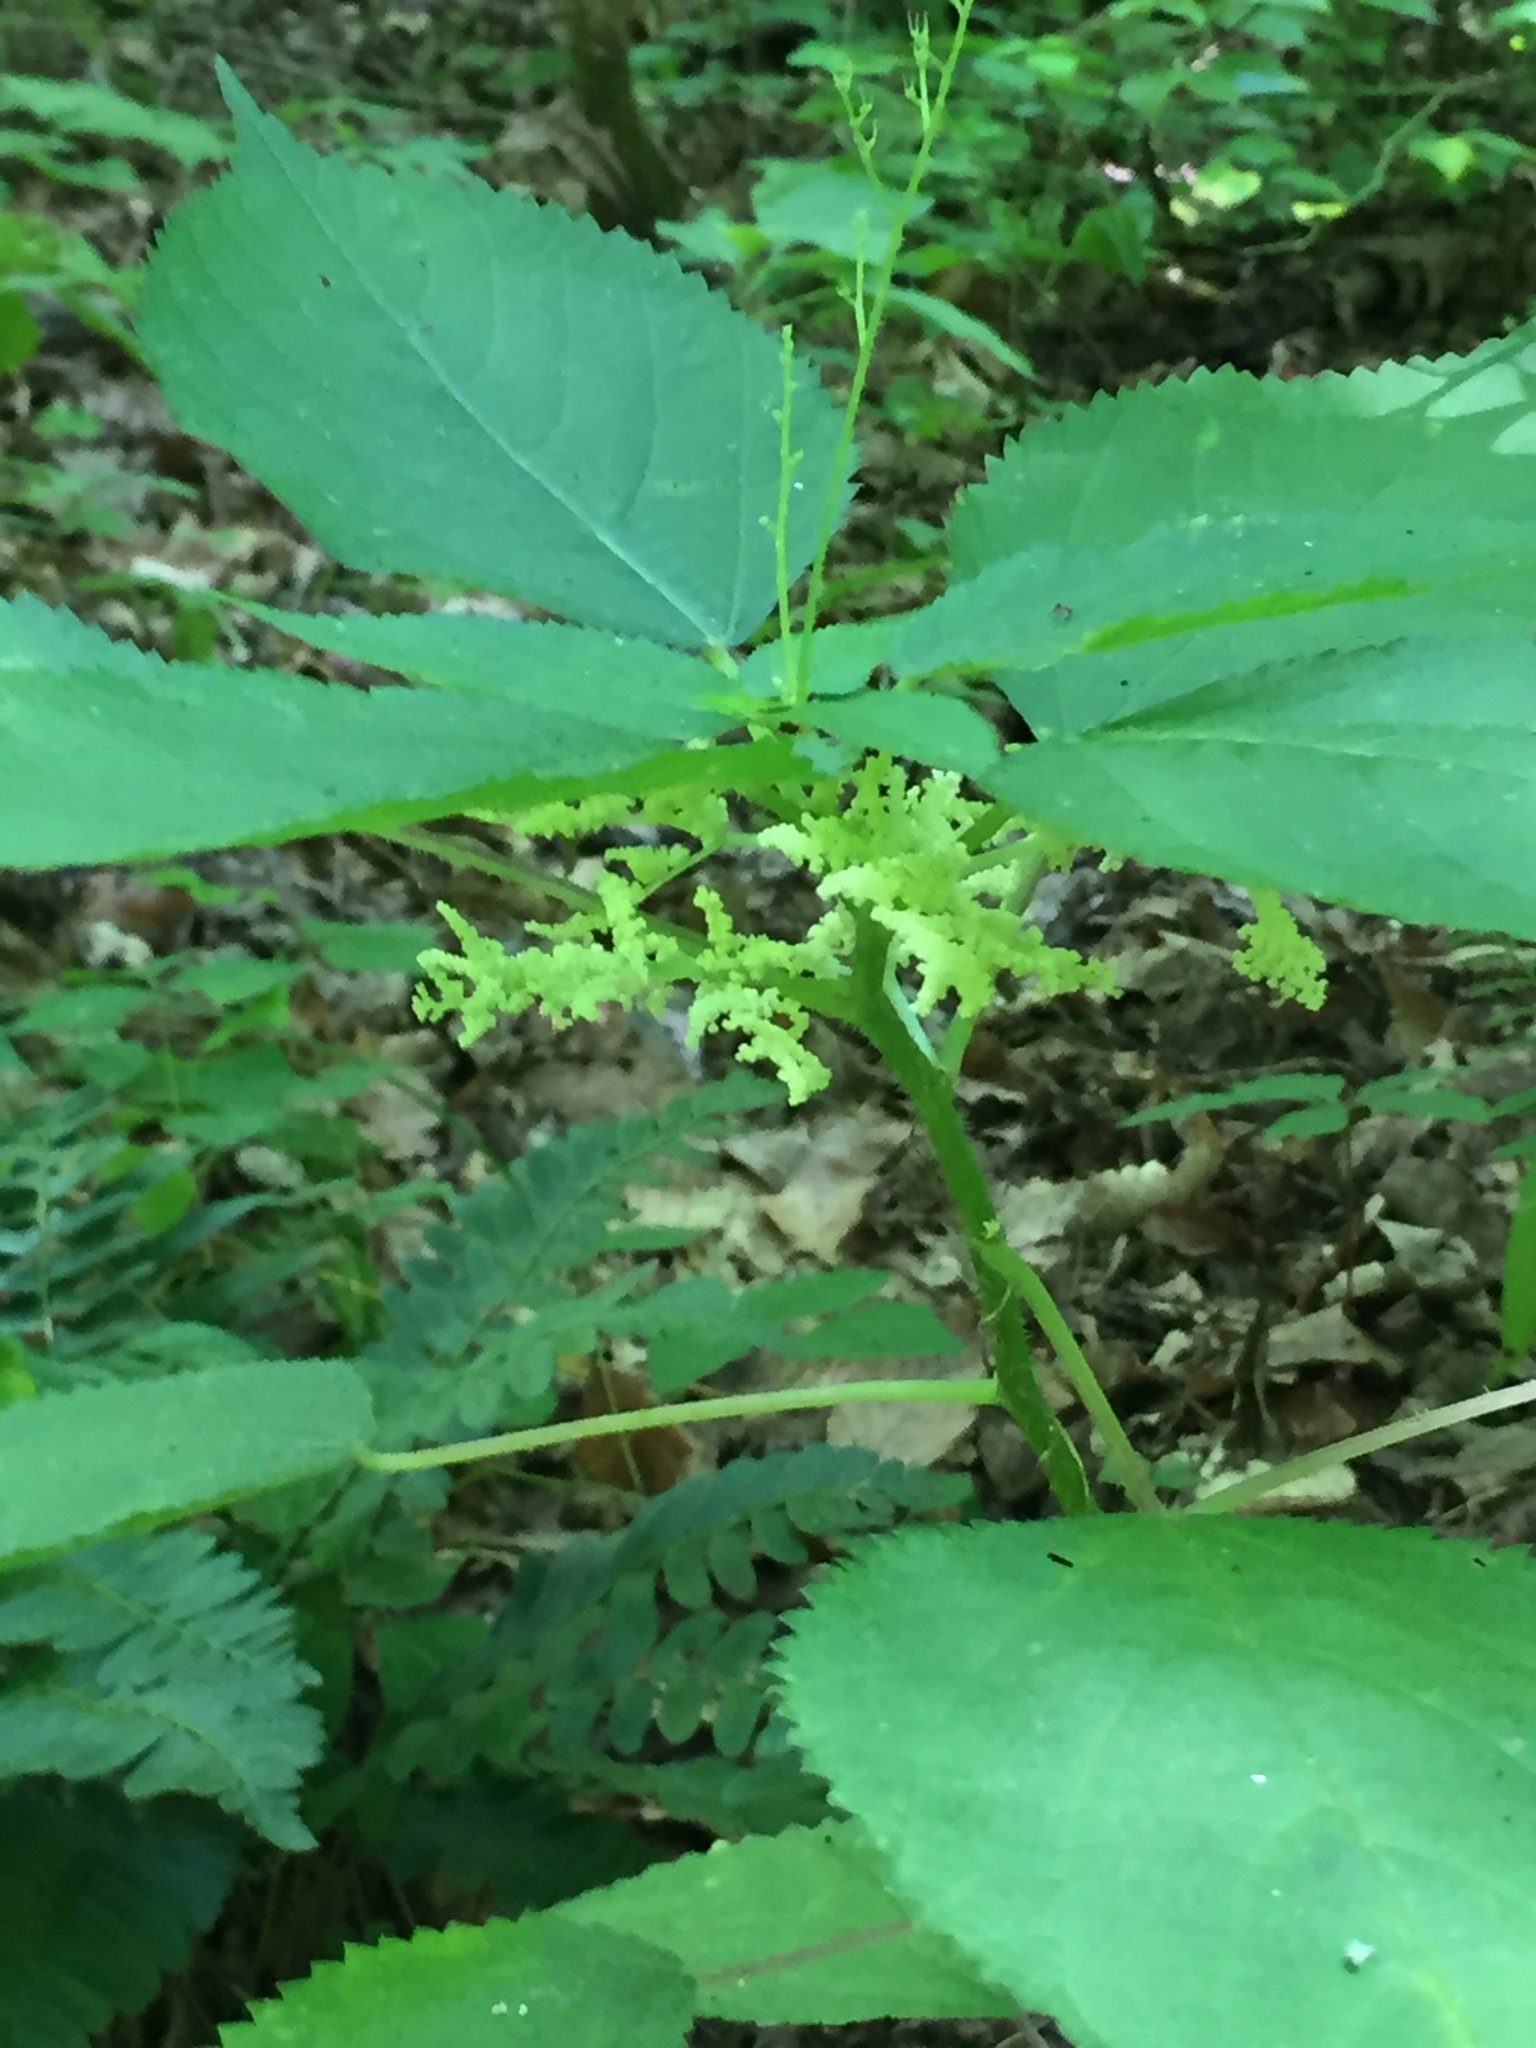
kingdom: Plantae
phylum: Tracheophyta
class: Magnoliopsida
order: Rosales
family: Urticaceae
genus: Laportea
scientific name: Laportea canadensis
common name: Canada nettle
